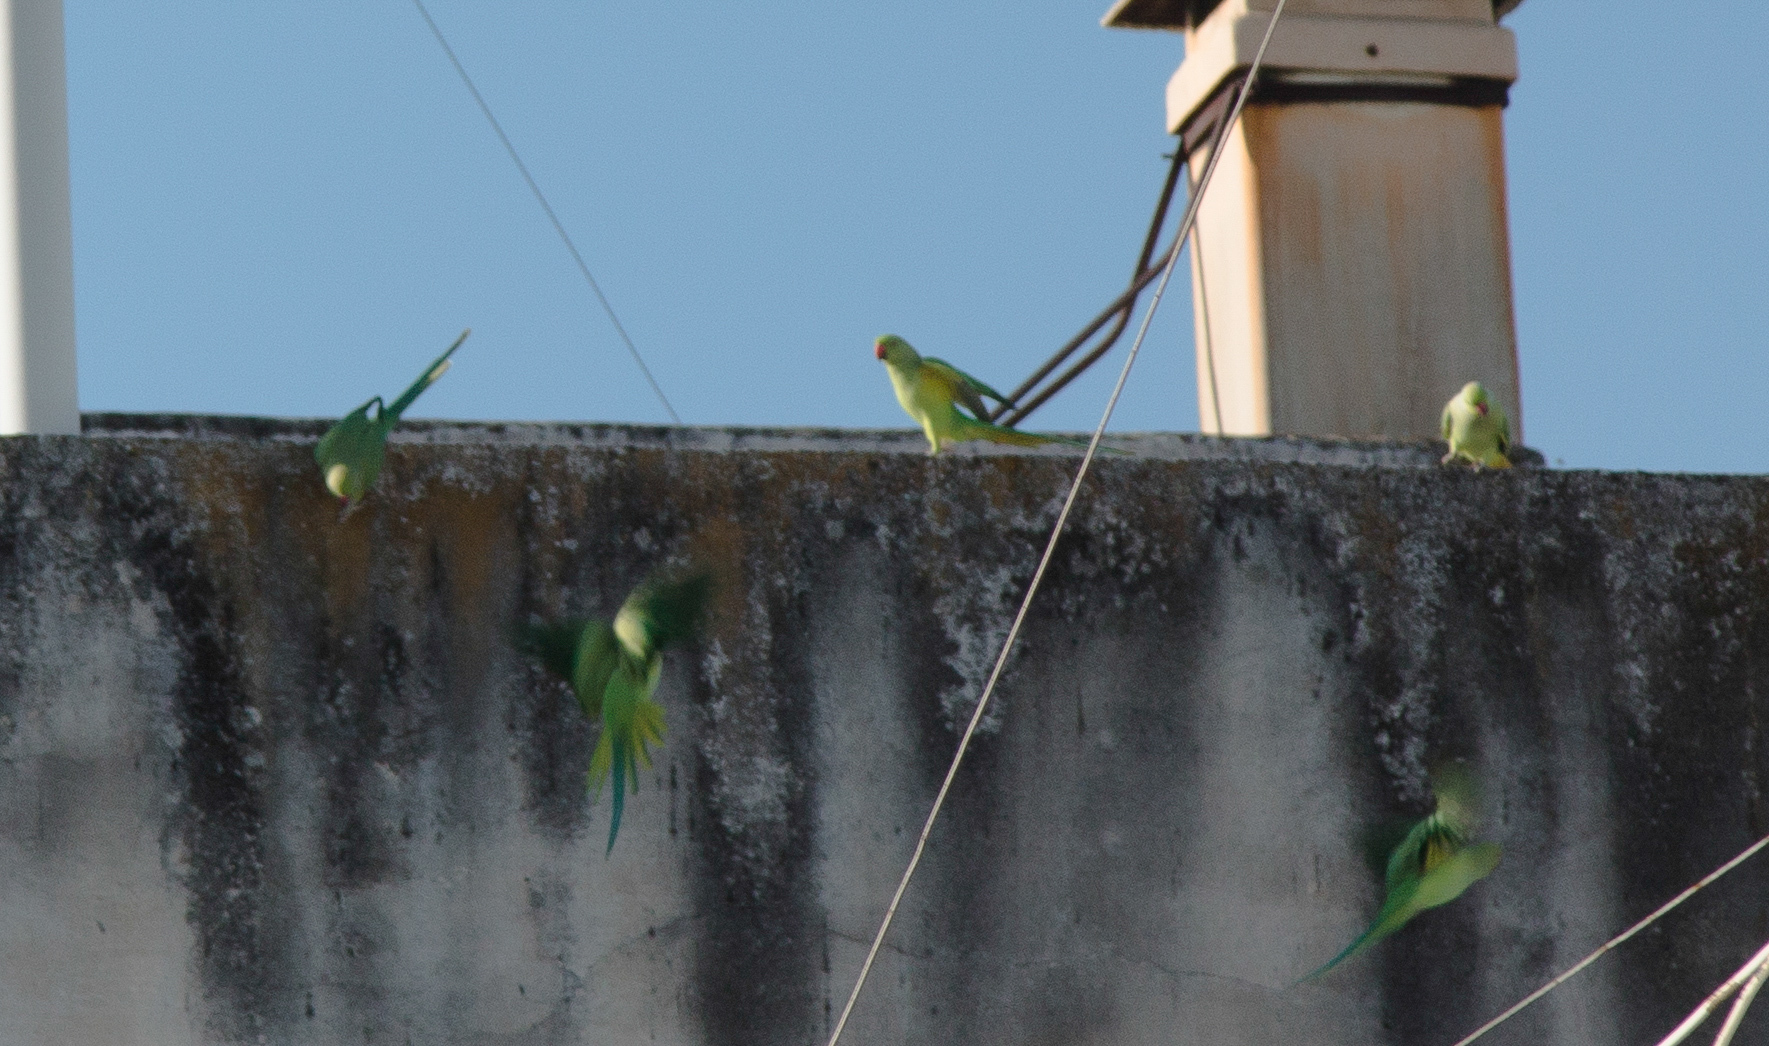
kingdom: Animalia
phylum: Chordata
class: Aves
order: Psittaciformes
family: Psittacidae
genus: Psittacula
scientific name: Psittacula krameri
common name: Rose-ringed parakeet
